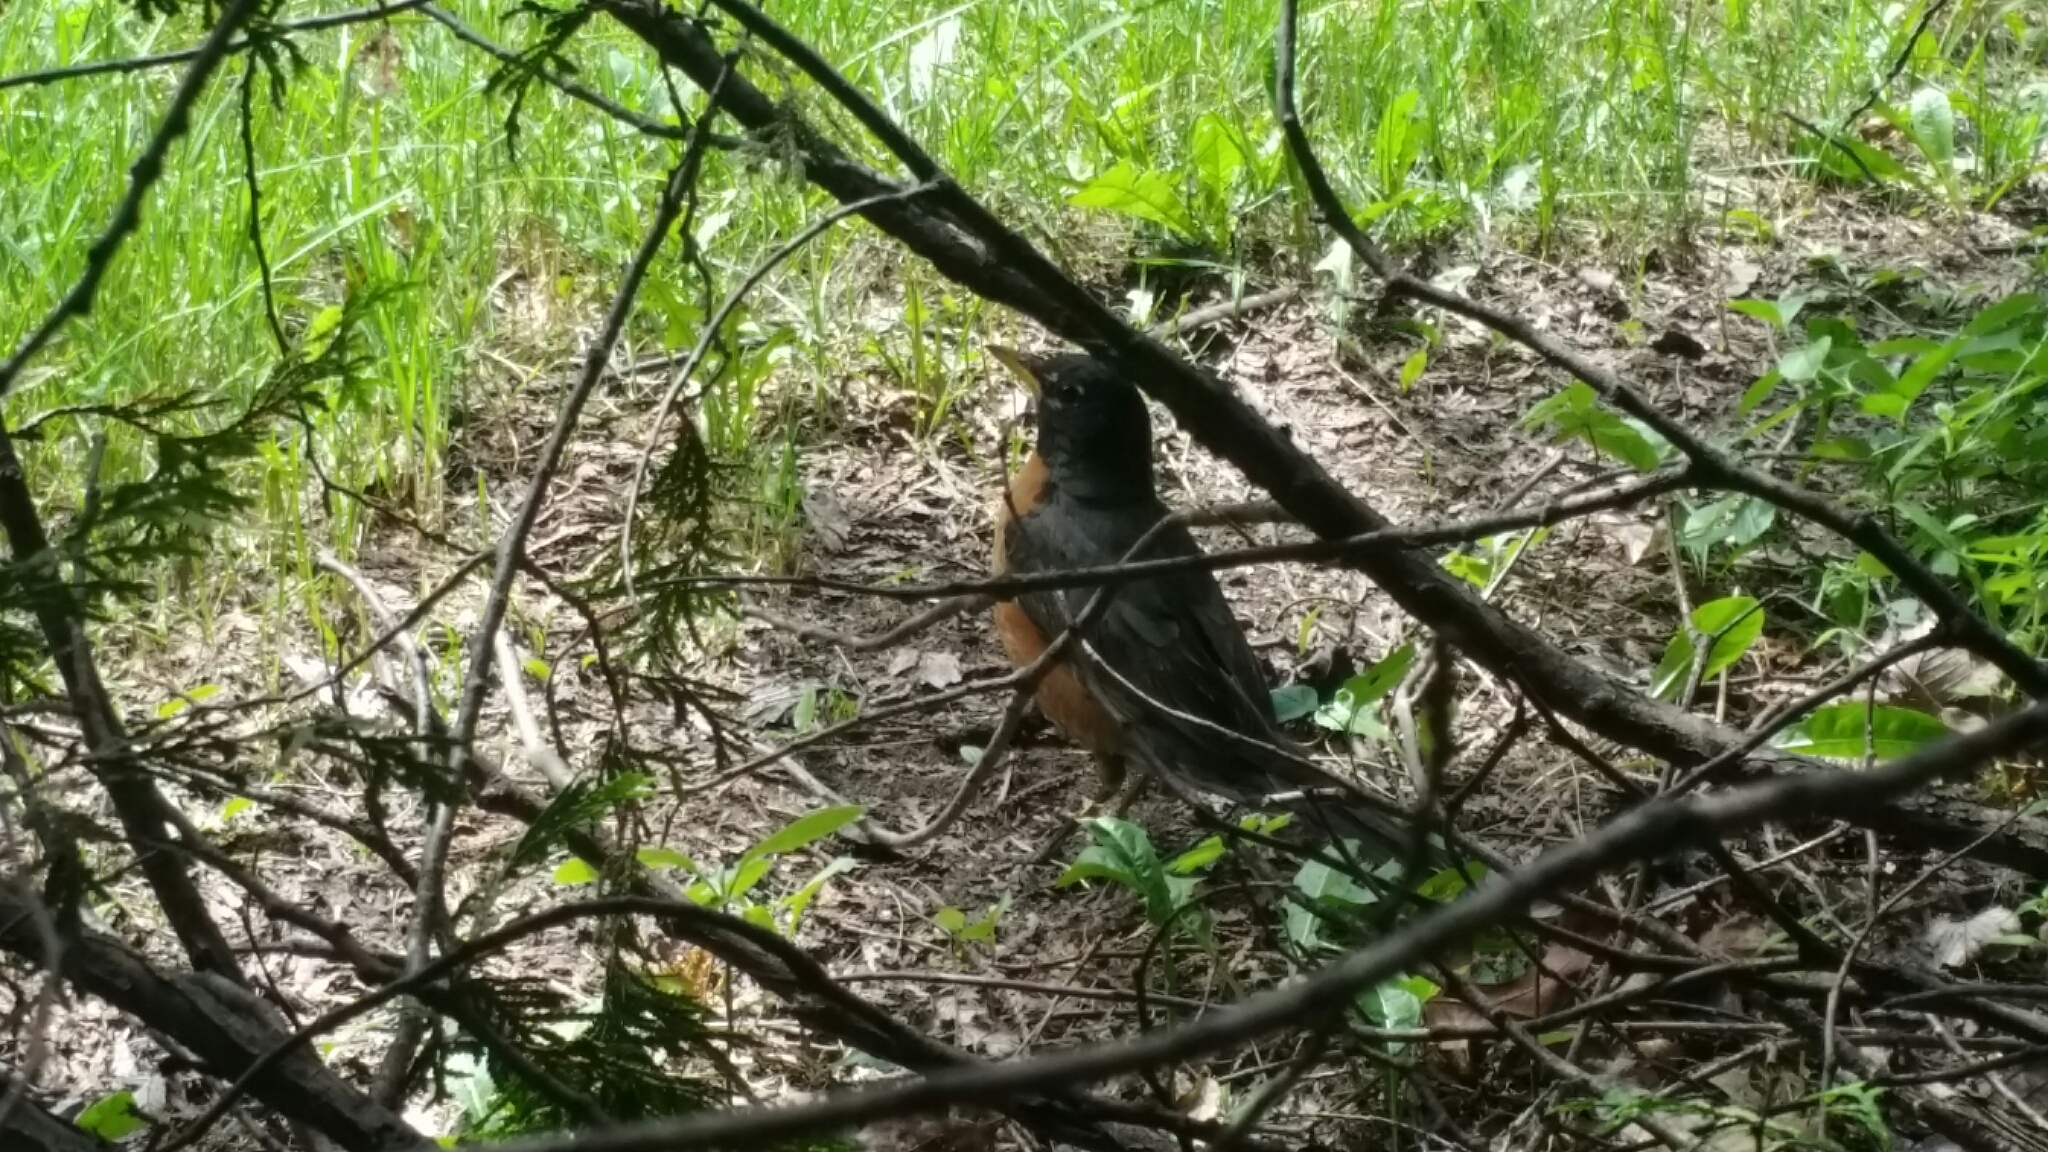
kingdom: Animalia
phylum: Chordata
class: Aves
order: Passeriformes
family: Turdidae
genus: Turdus
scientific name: Turdus migratorius
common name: American robin
